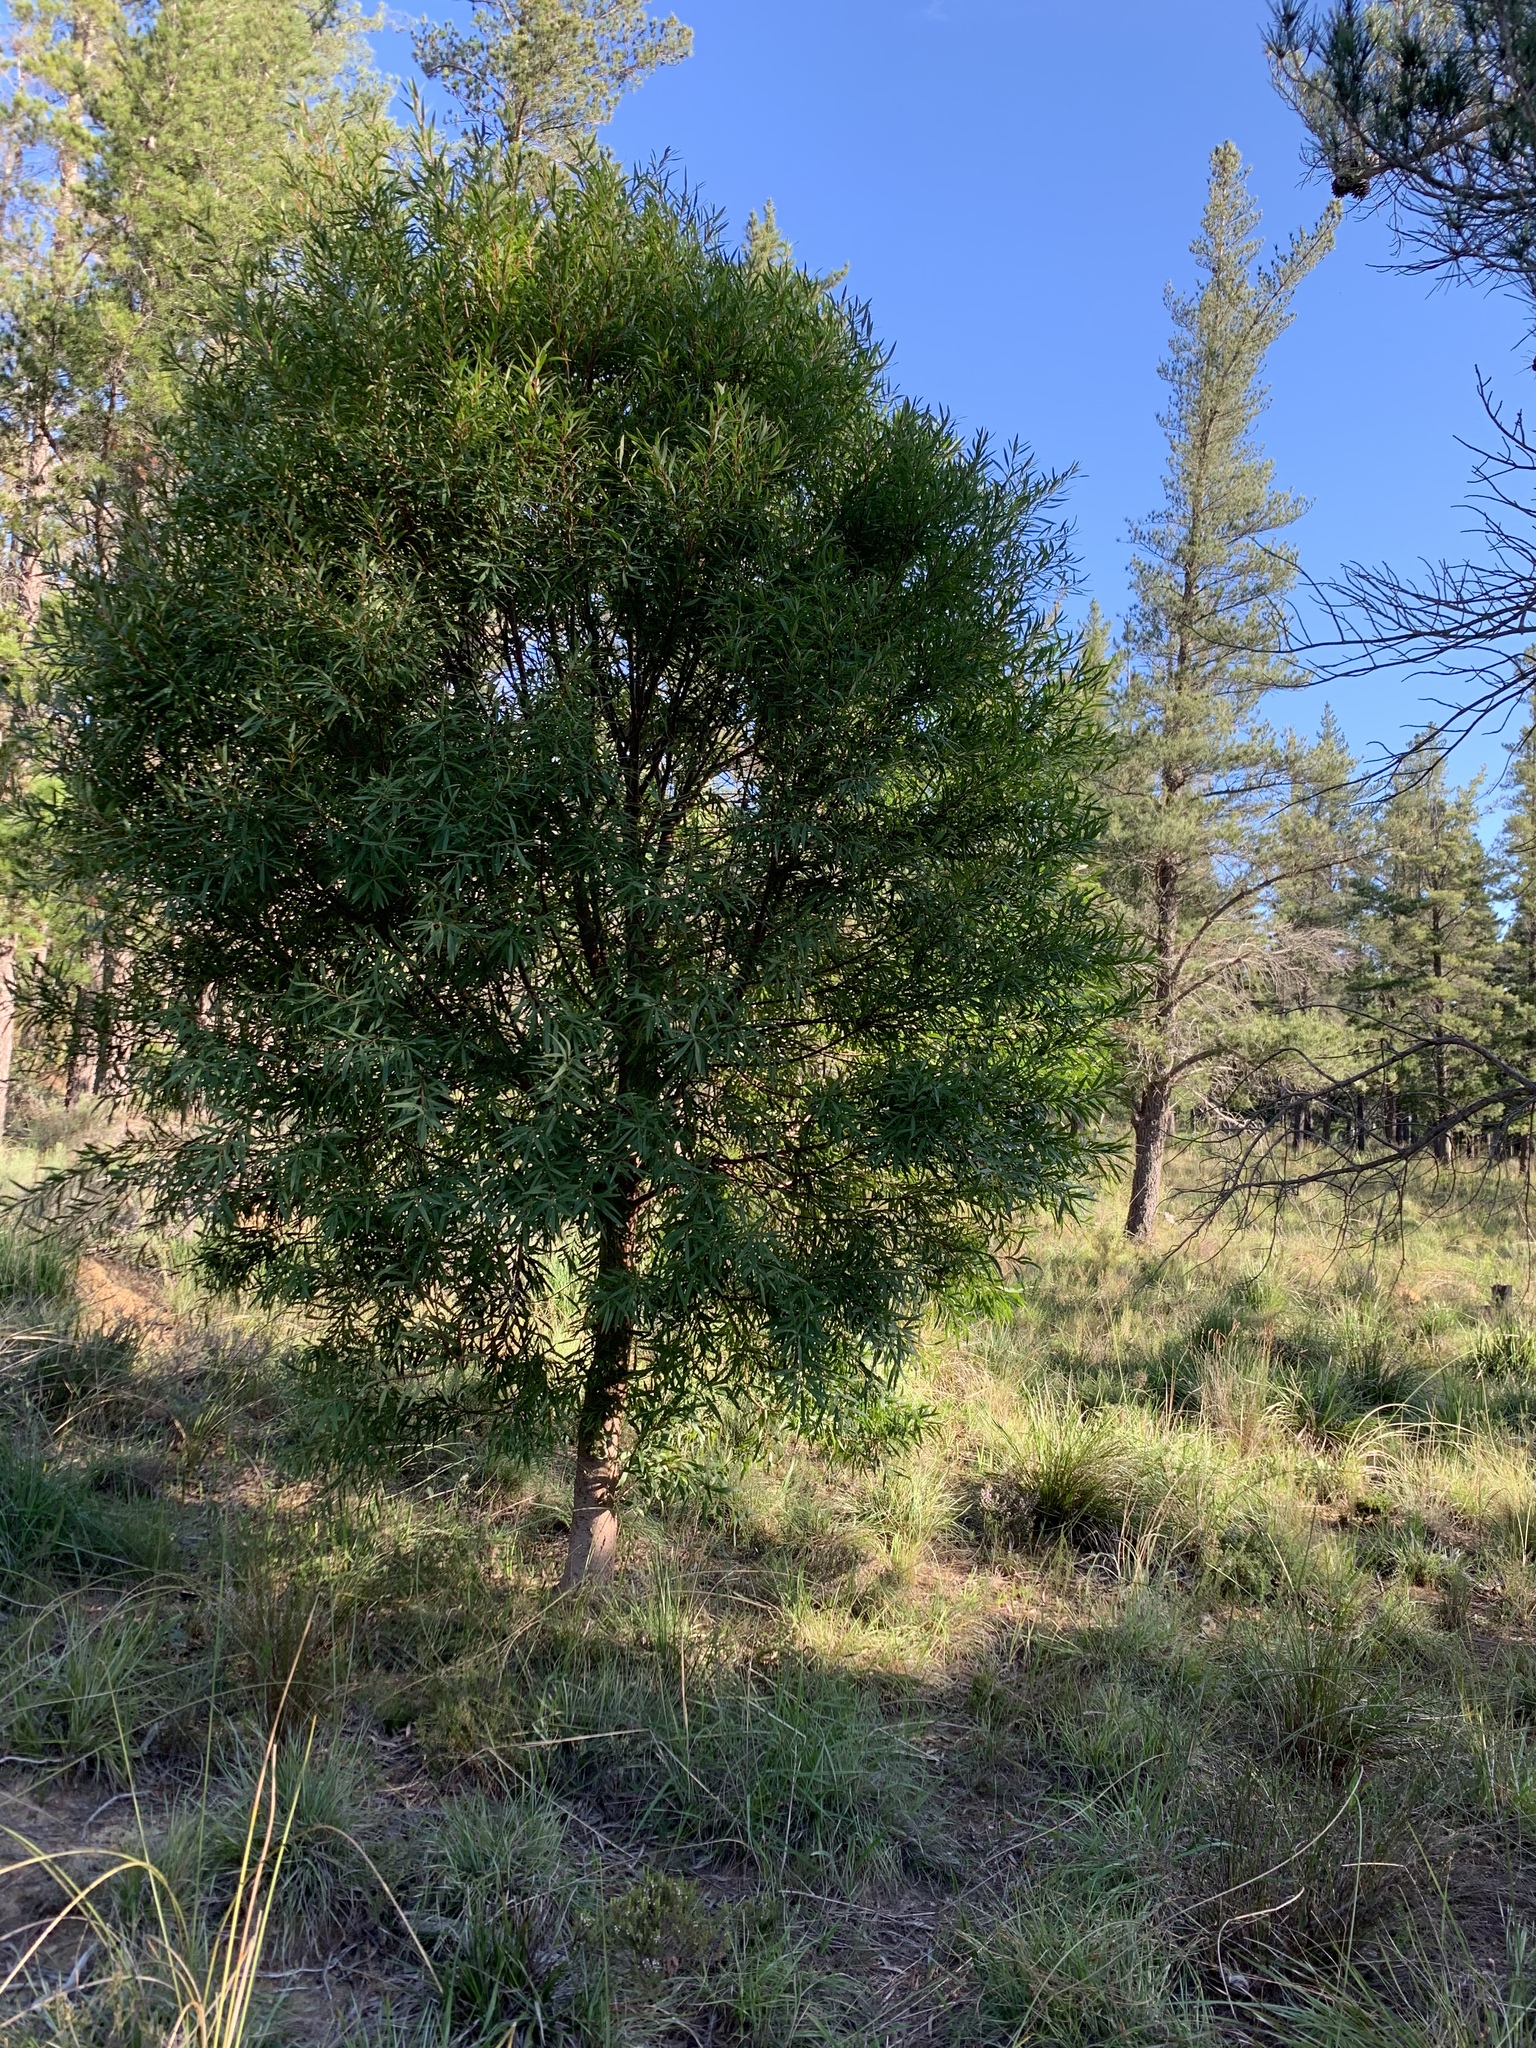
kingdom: Plantae
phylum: Tracheophyta
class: Magnoliopsida
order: Proteales
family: Proteaceae
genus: Hakea
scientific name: Hakea salicifolia
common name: Willow hakea
